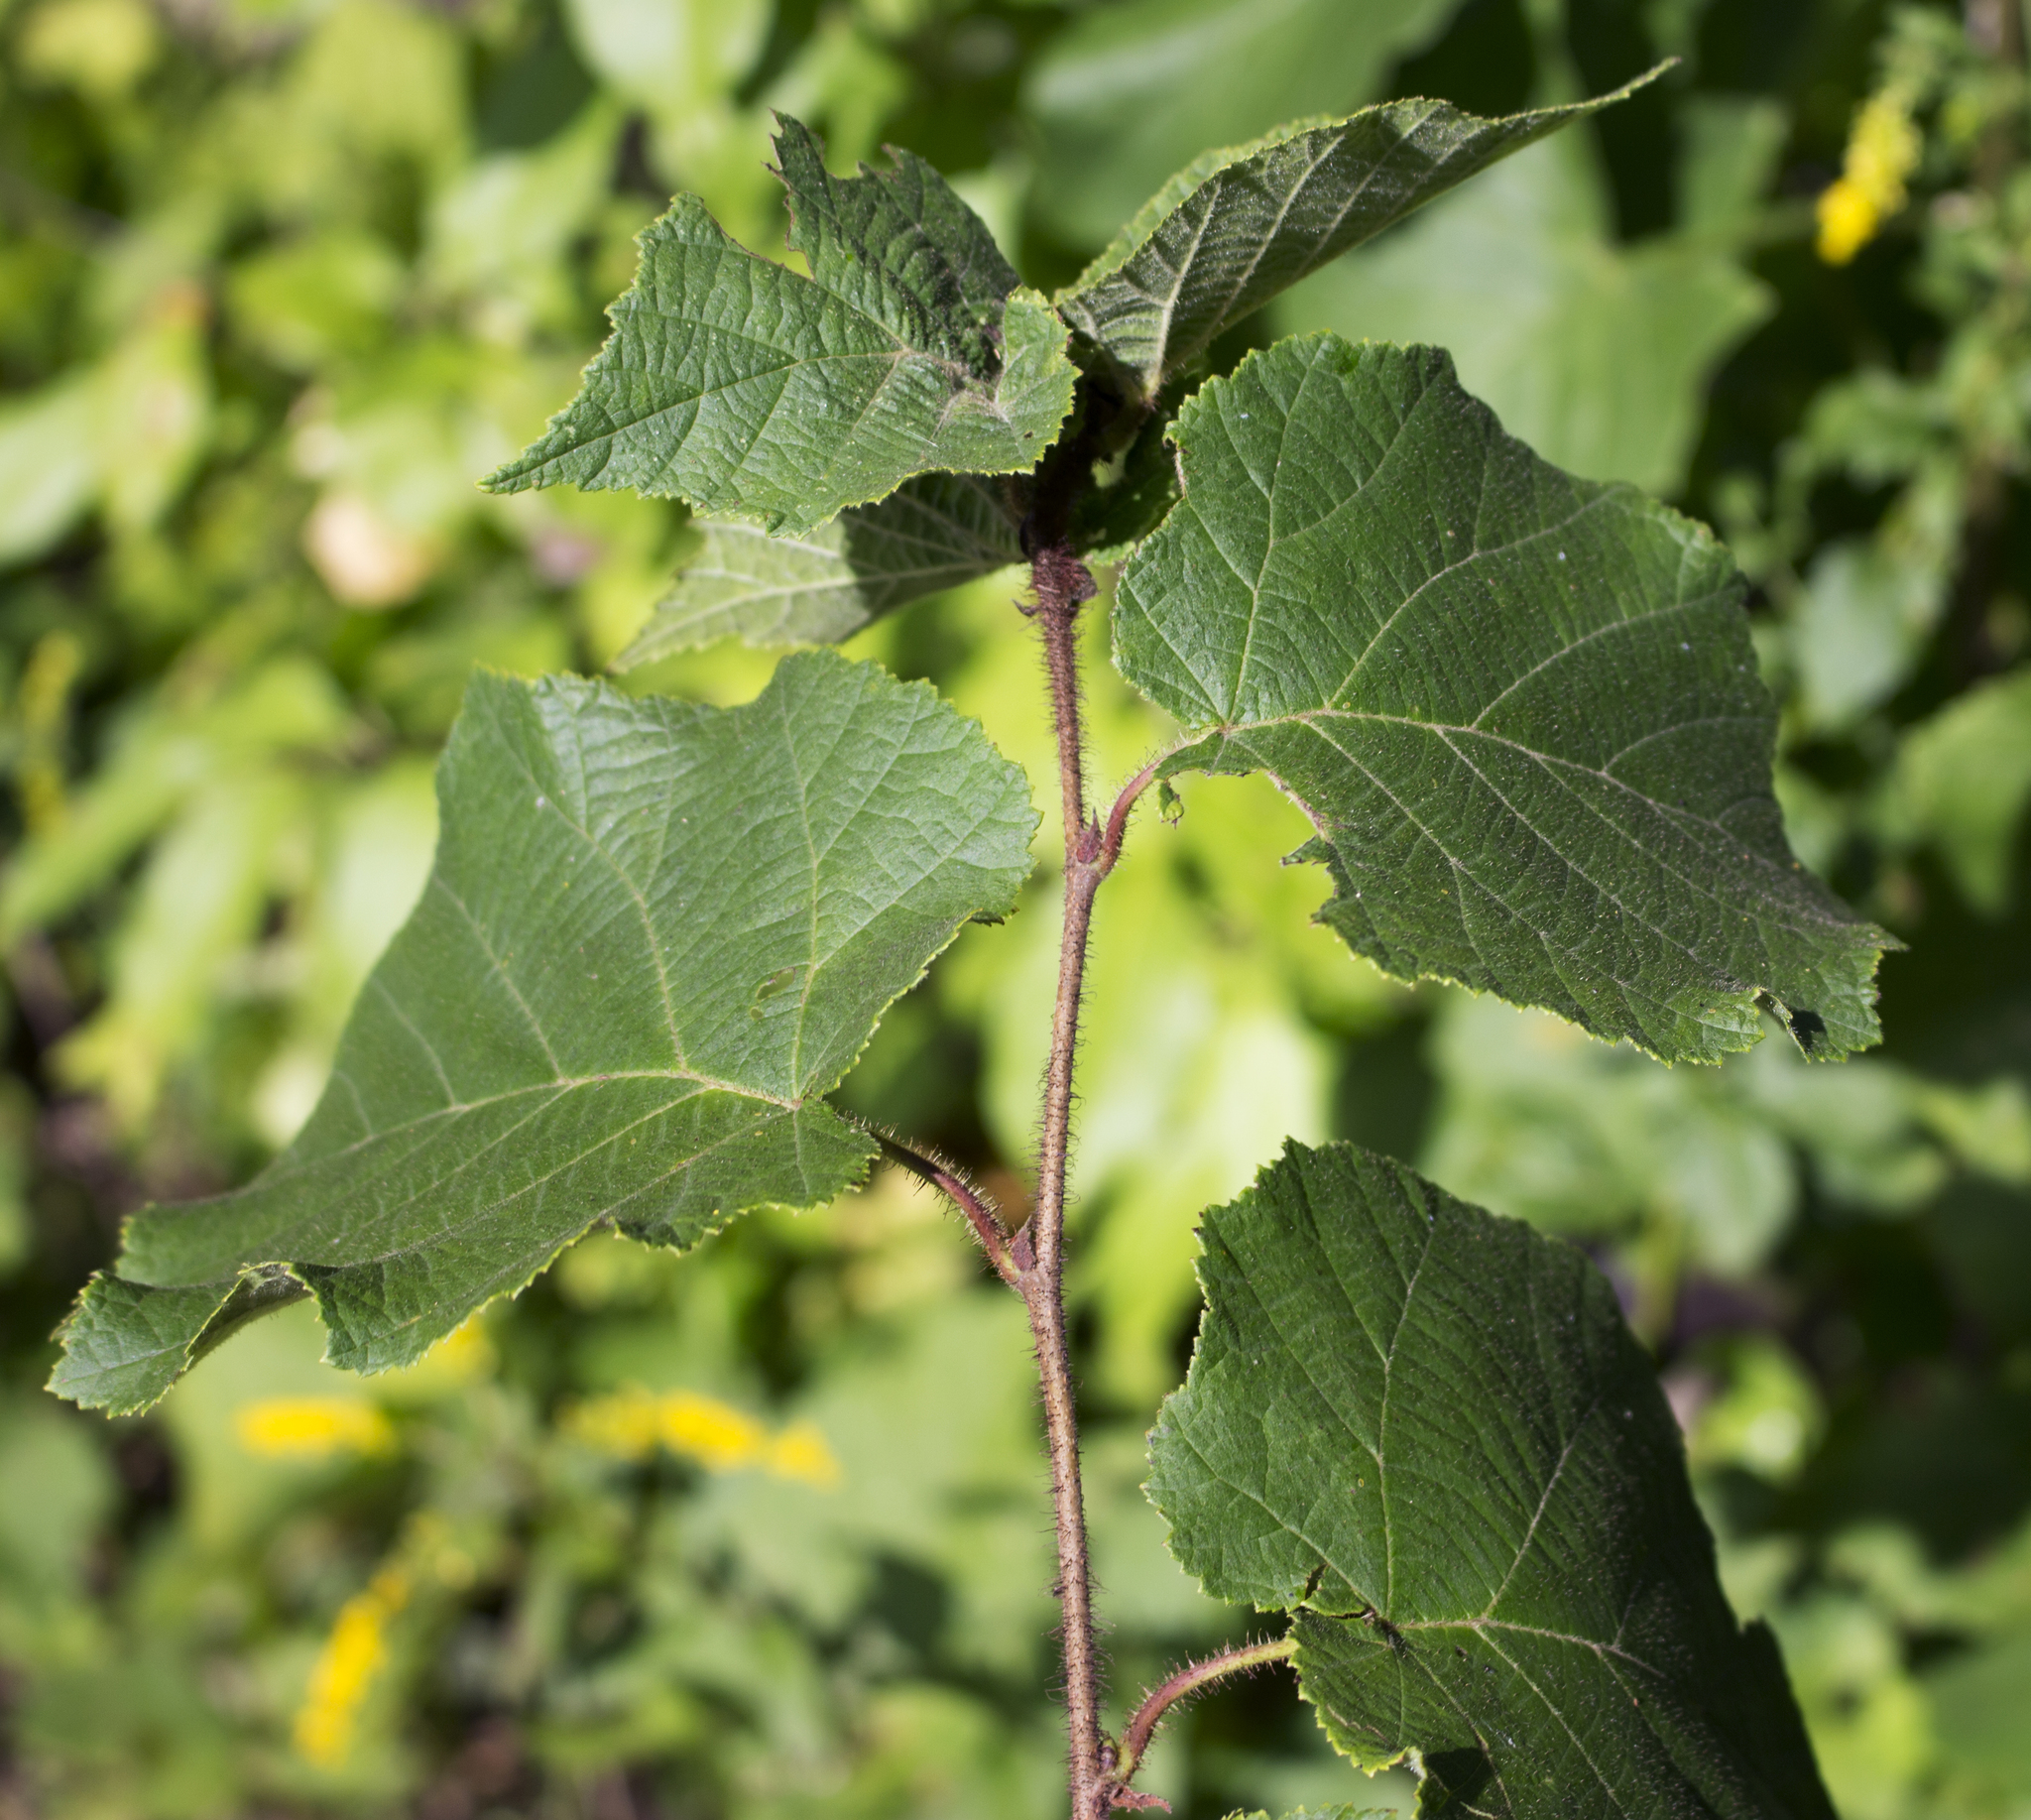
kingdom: Plantae
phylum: Tracheophyta
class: Magnoliopsida
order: Fagales
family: Betulaceae
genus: Corylus
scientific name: Corylus americana
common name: American hazel
